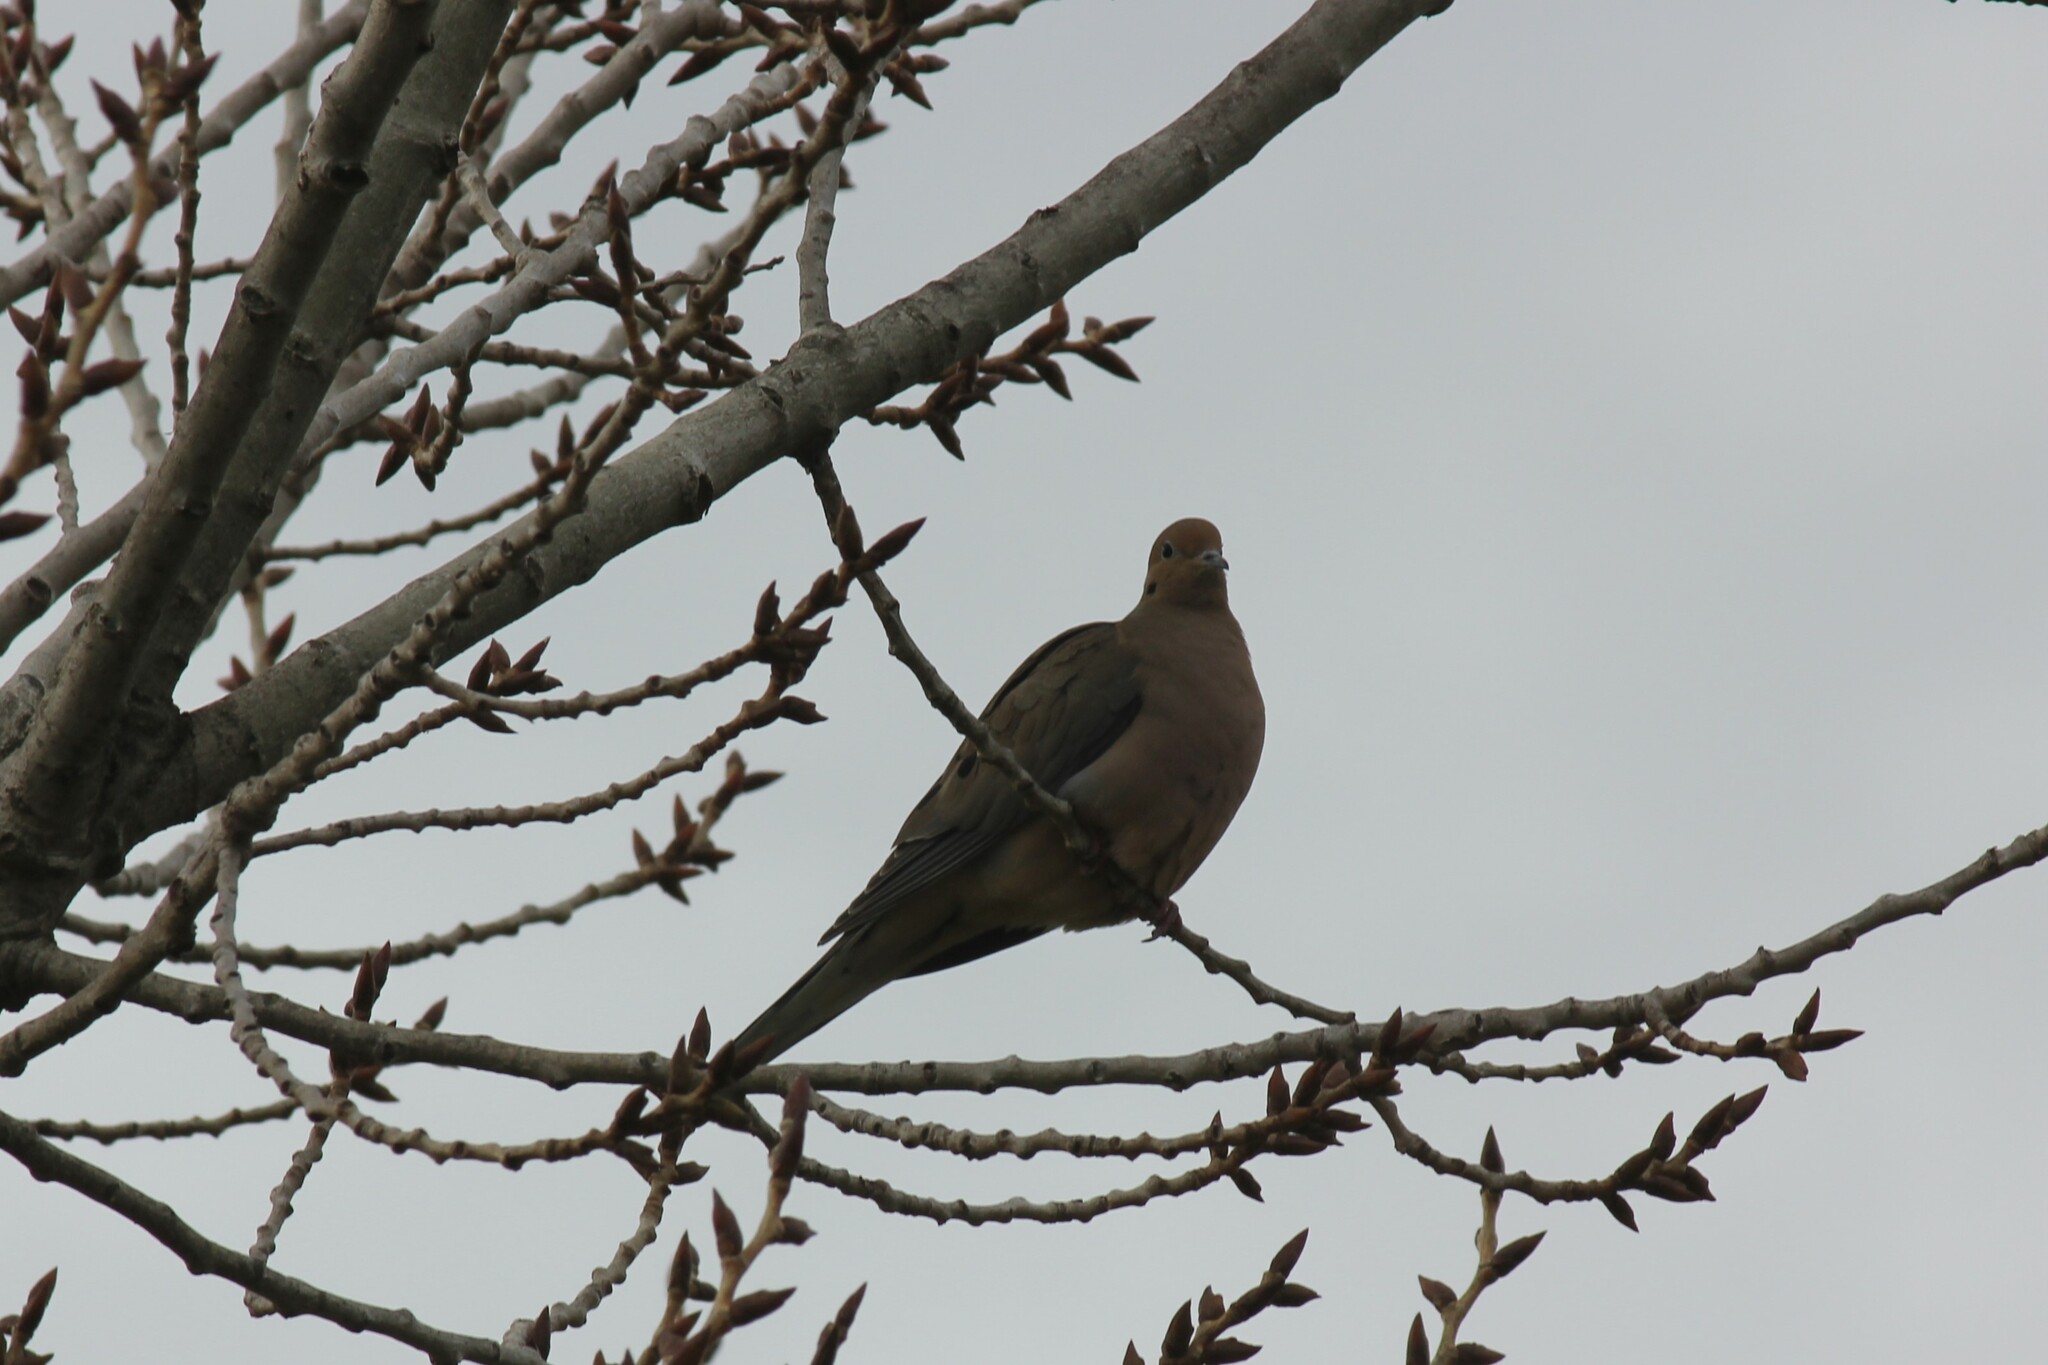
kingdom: Animalia
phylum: Chordata
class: Aves
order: Columbiformes
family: Columbidae
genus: Zenaida
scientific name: Zenaida macroura
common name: Mourning dove
